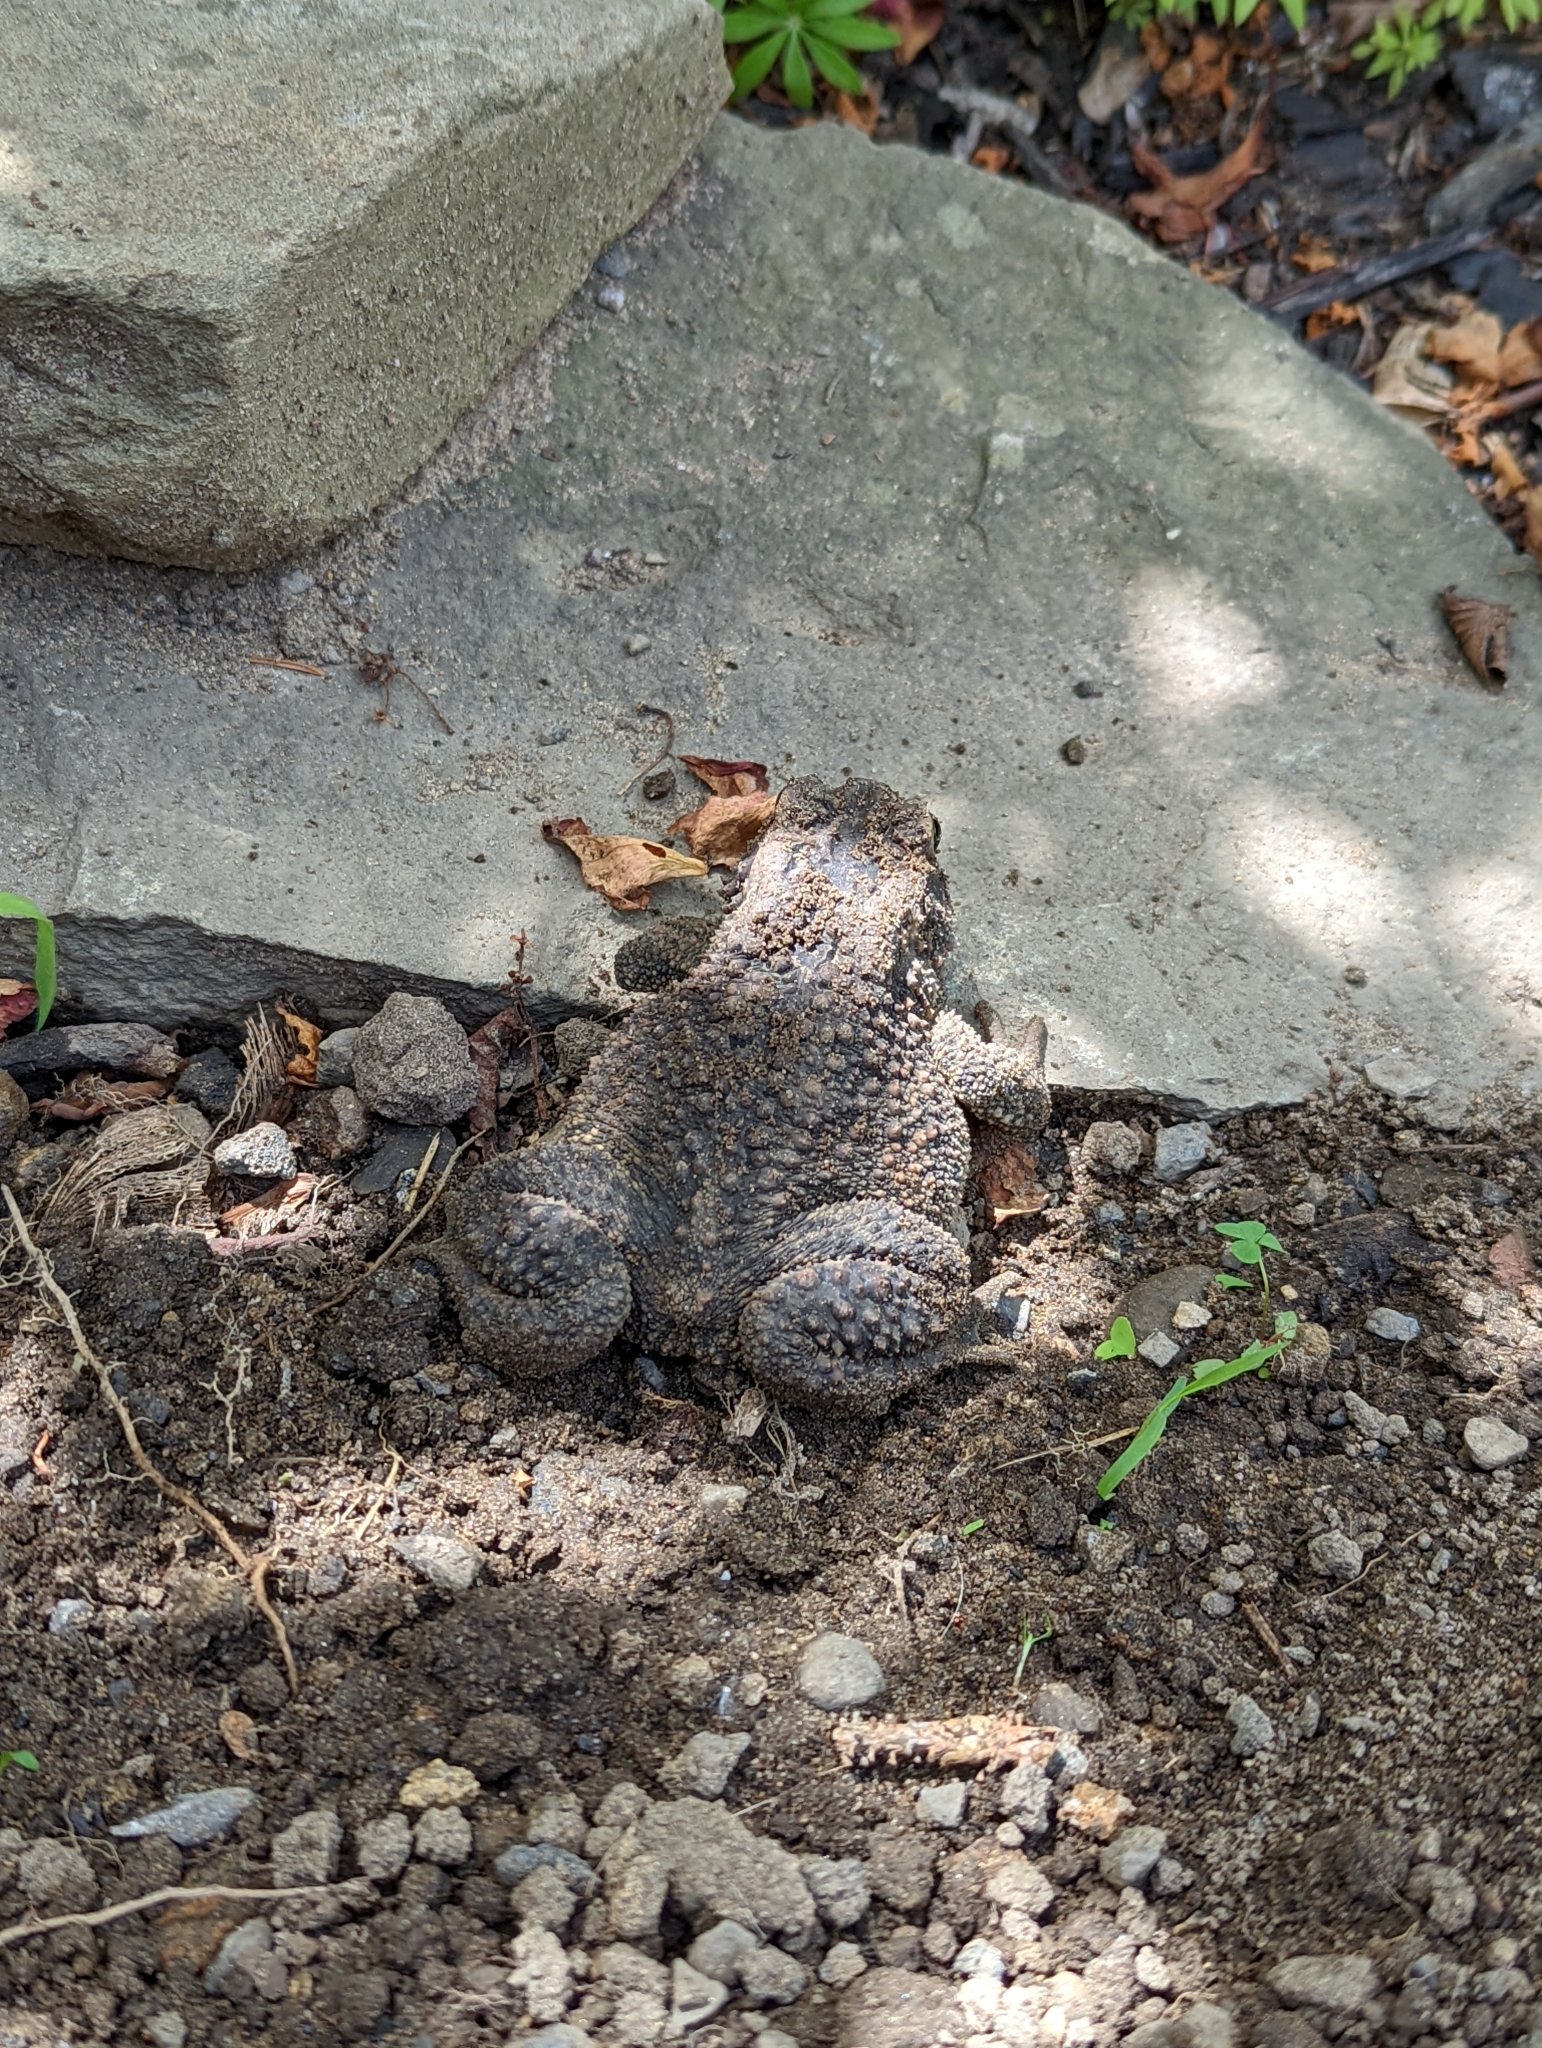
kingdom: Animalia
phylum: Chordata
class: Amphibia
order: Anura
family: Bufonidae
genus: Anaxyrus
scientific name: Anaxyrus americanus
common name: American toad
